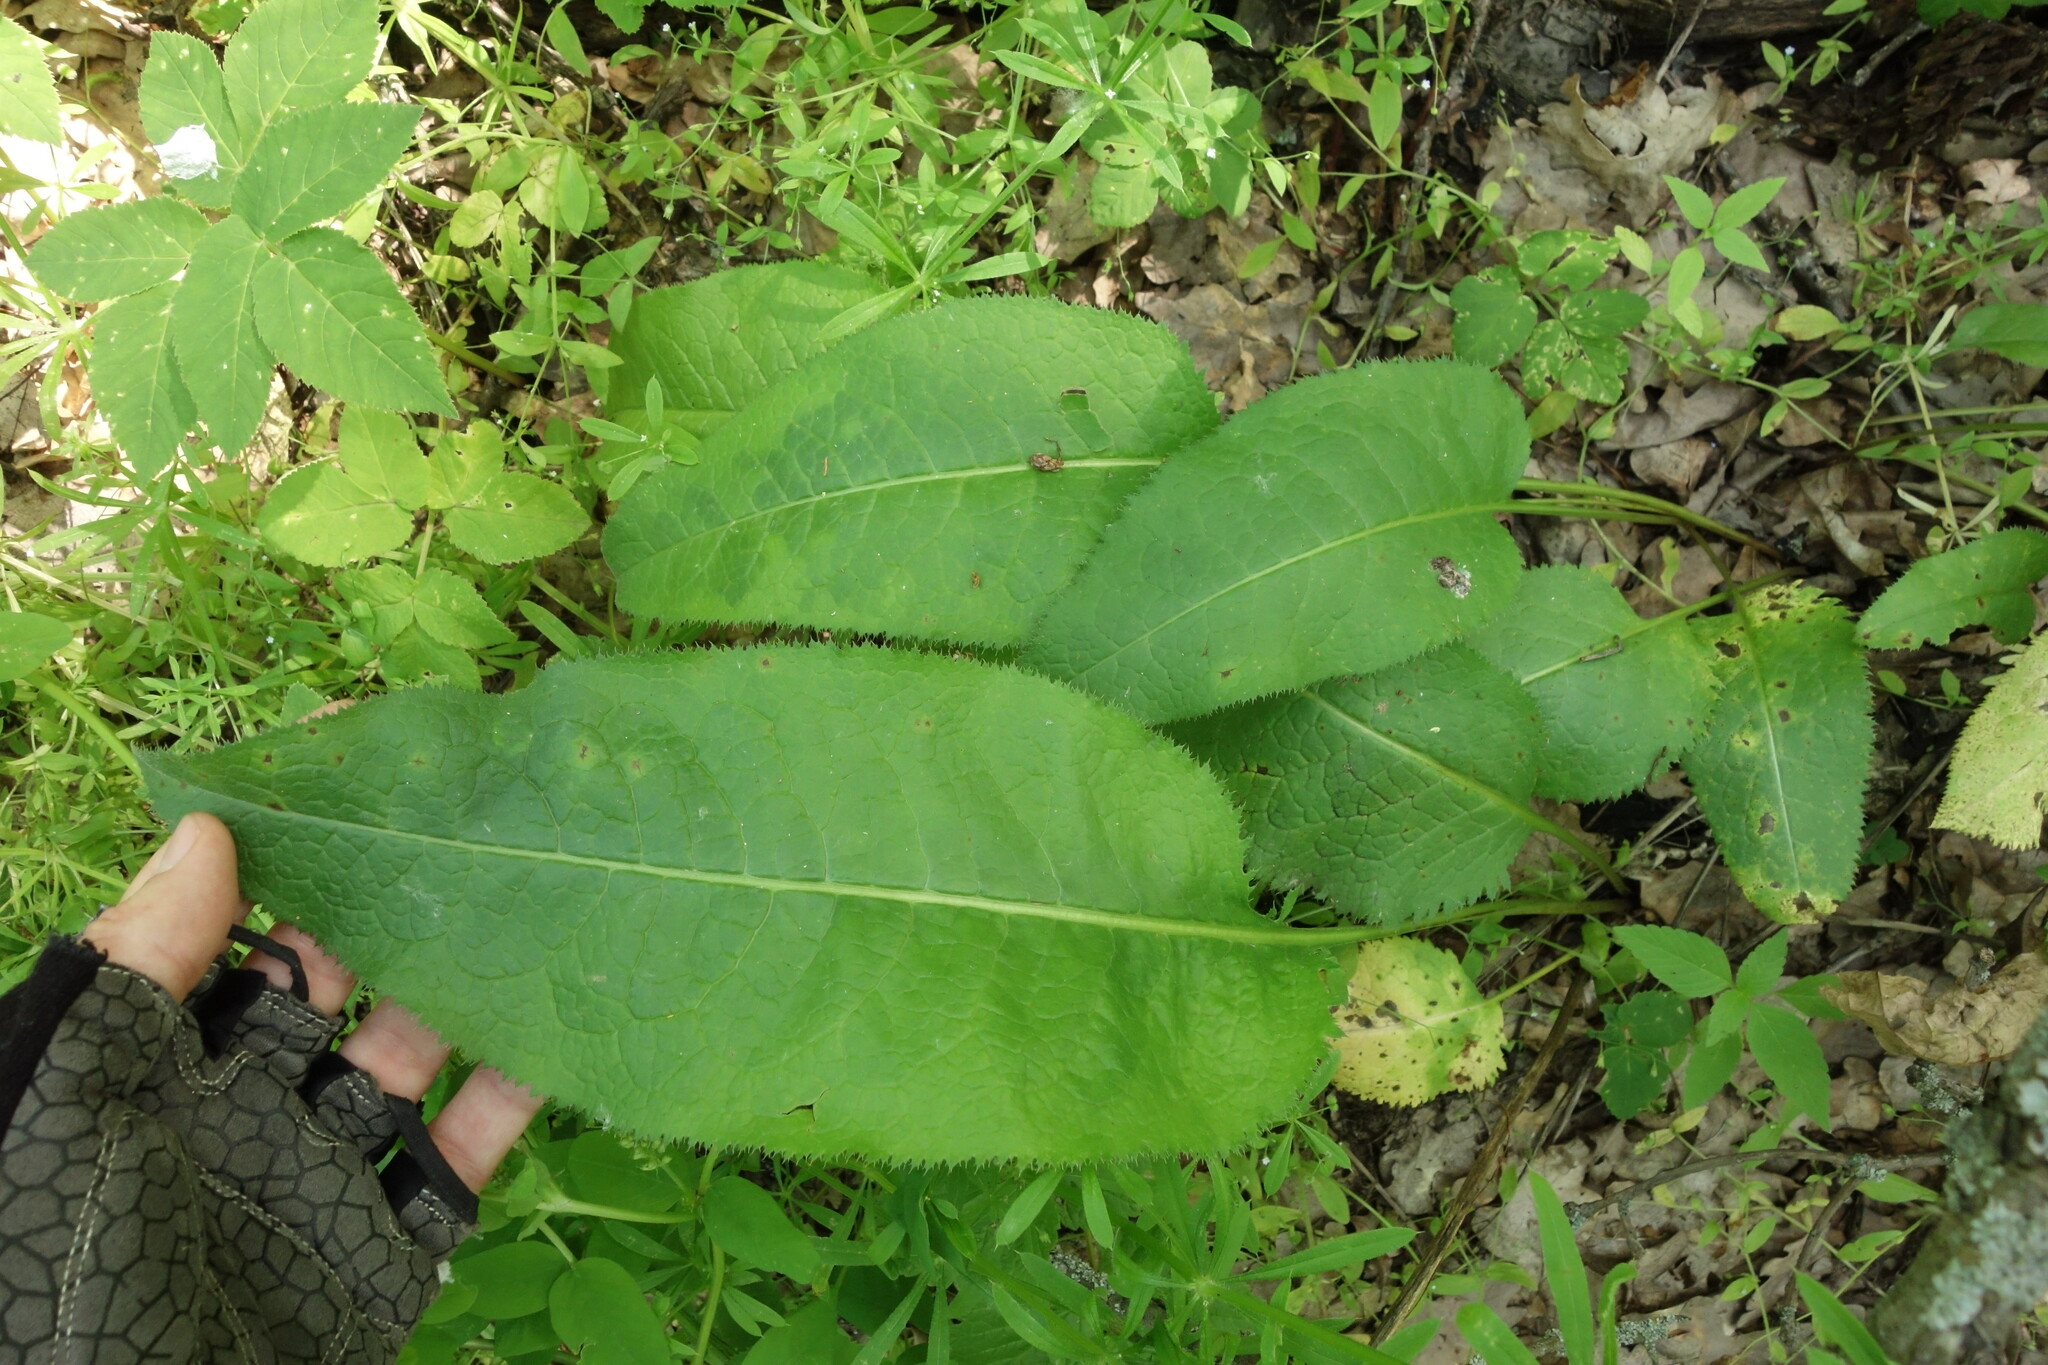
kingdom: Plantae
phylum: Tracheophyta
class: Magnoliopsida
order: Asterales
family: Asteraceae
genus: Serratula
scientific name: Serratula tinctoria
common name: Saw-wort
